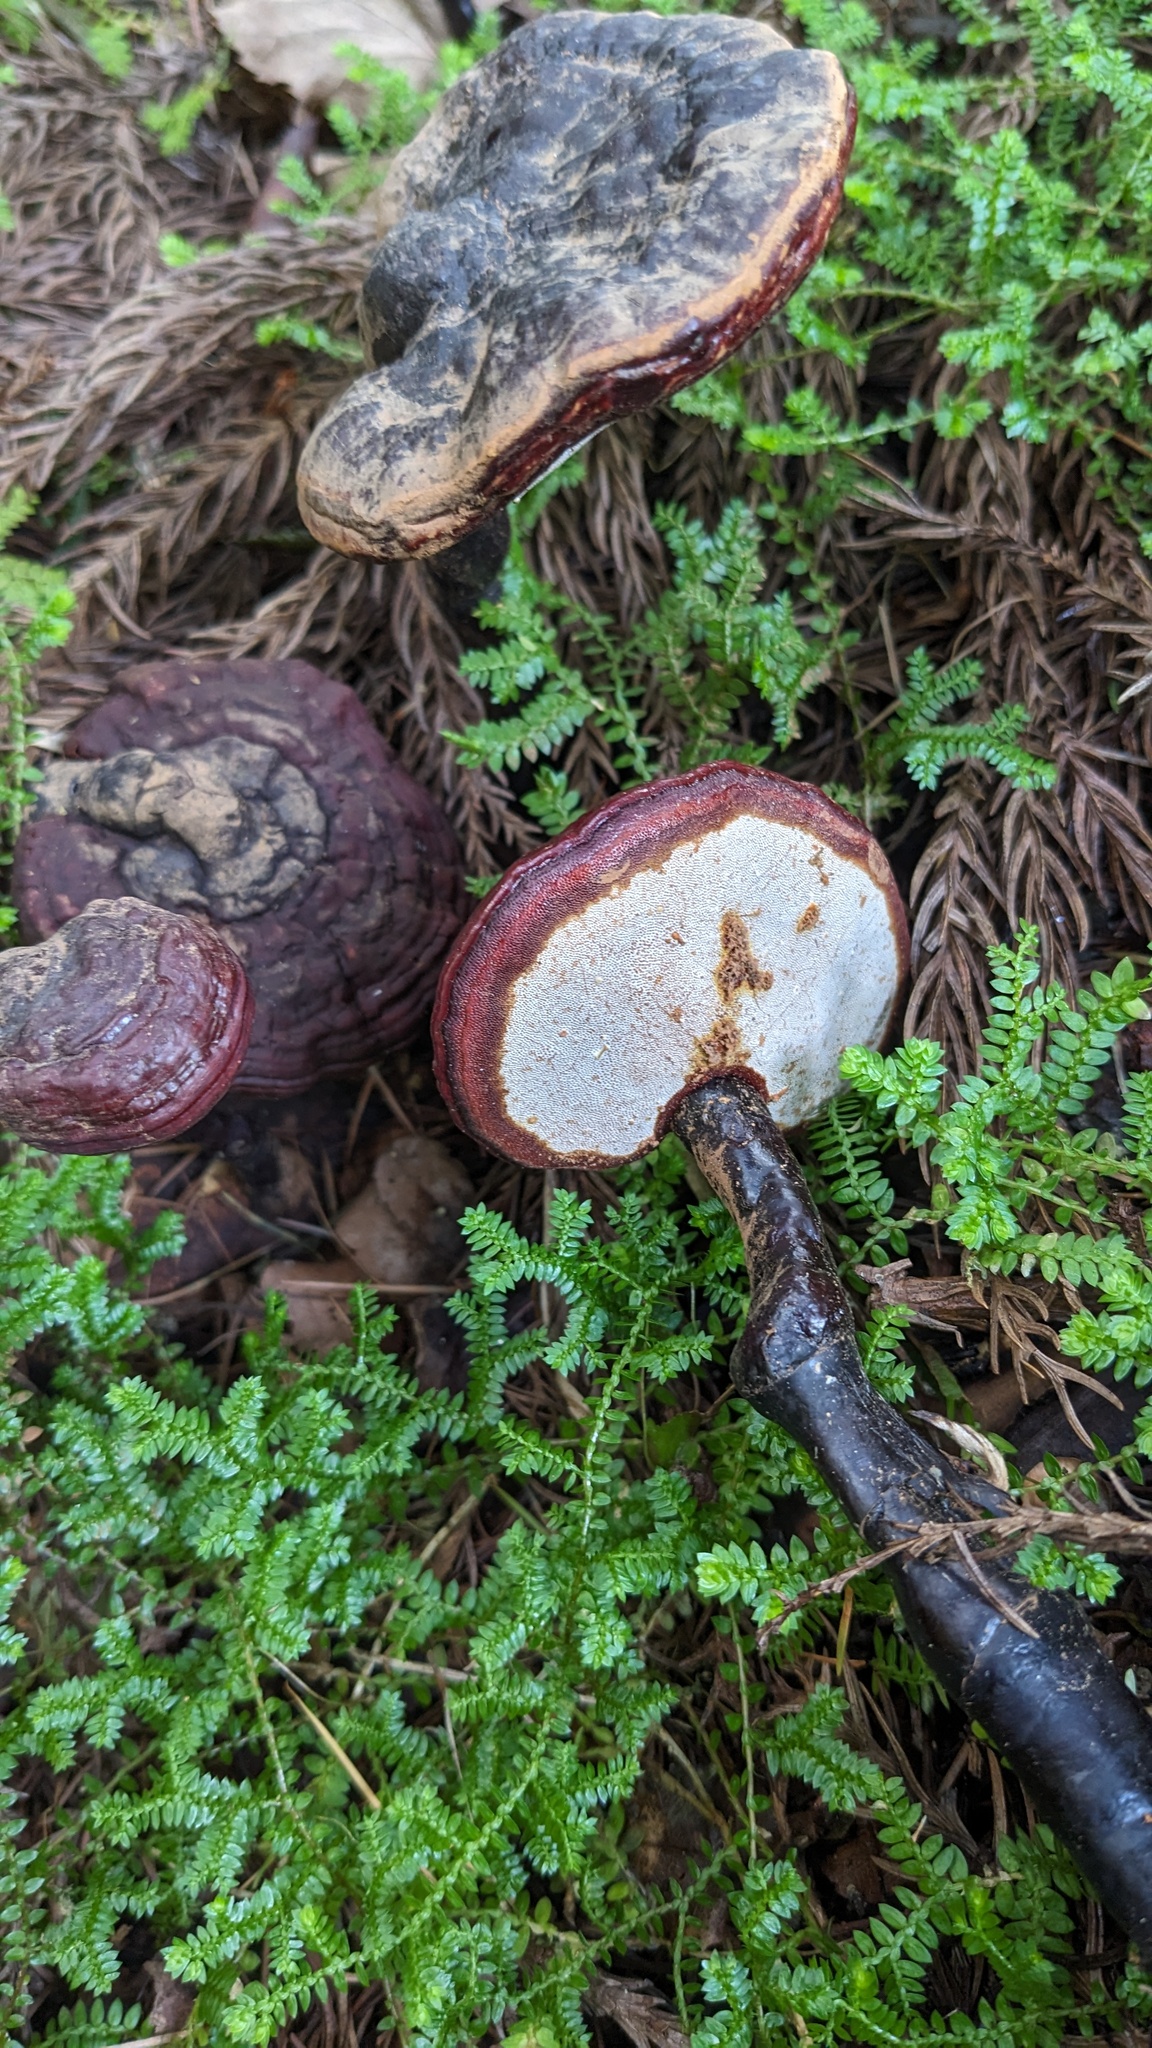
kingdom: Fungi
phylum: Basidiomycota
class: Agaricomycetes
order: Polyporales
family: Polyporaceae
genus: Ganoderma
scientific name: Ganoderma neojaponicum
